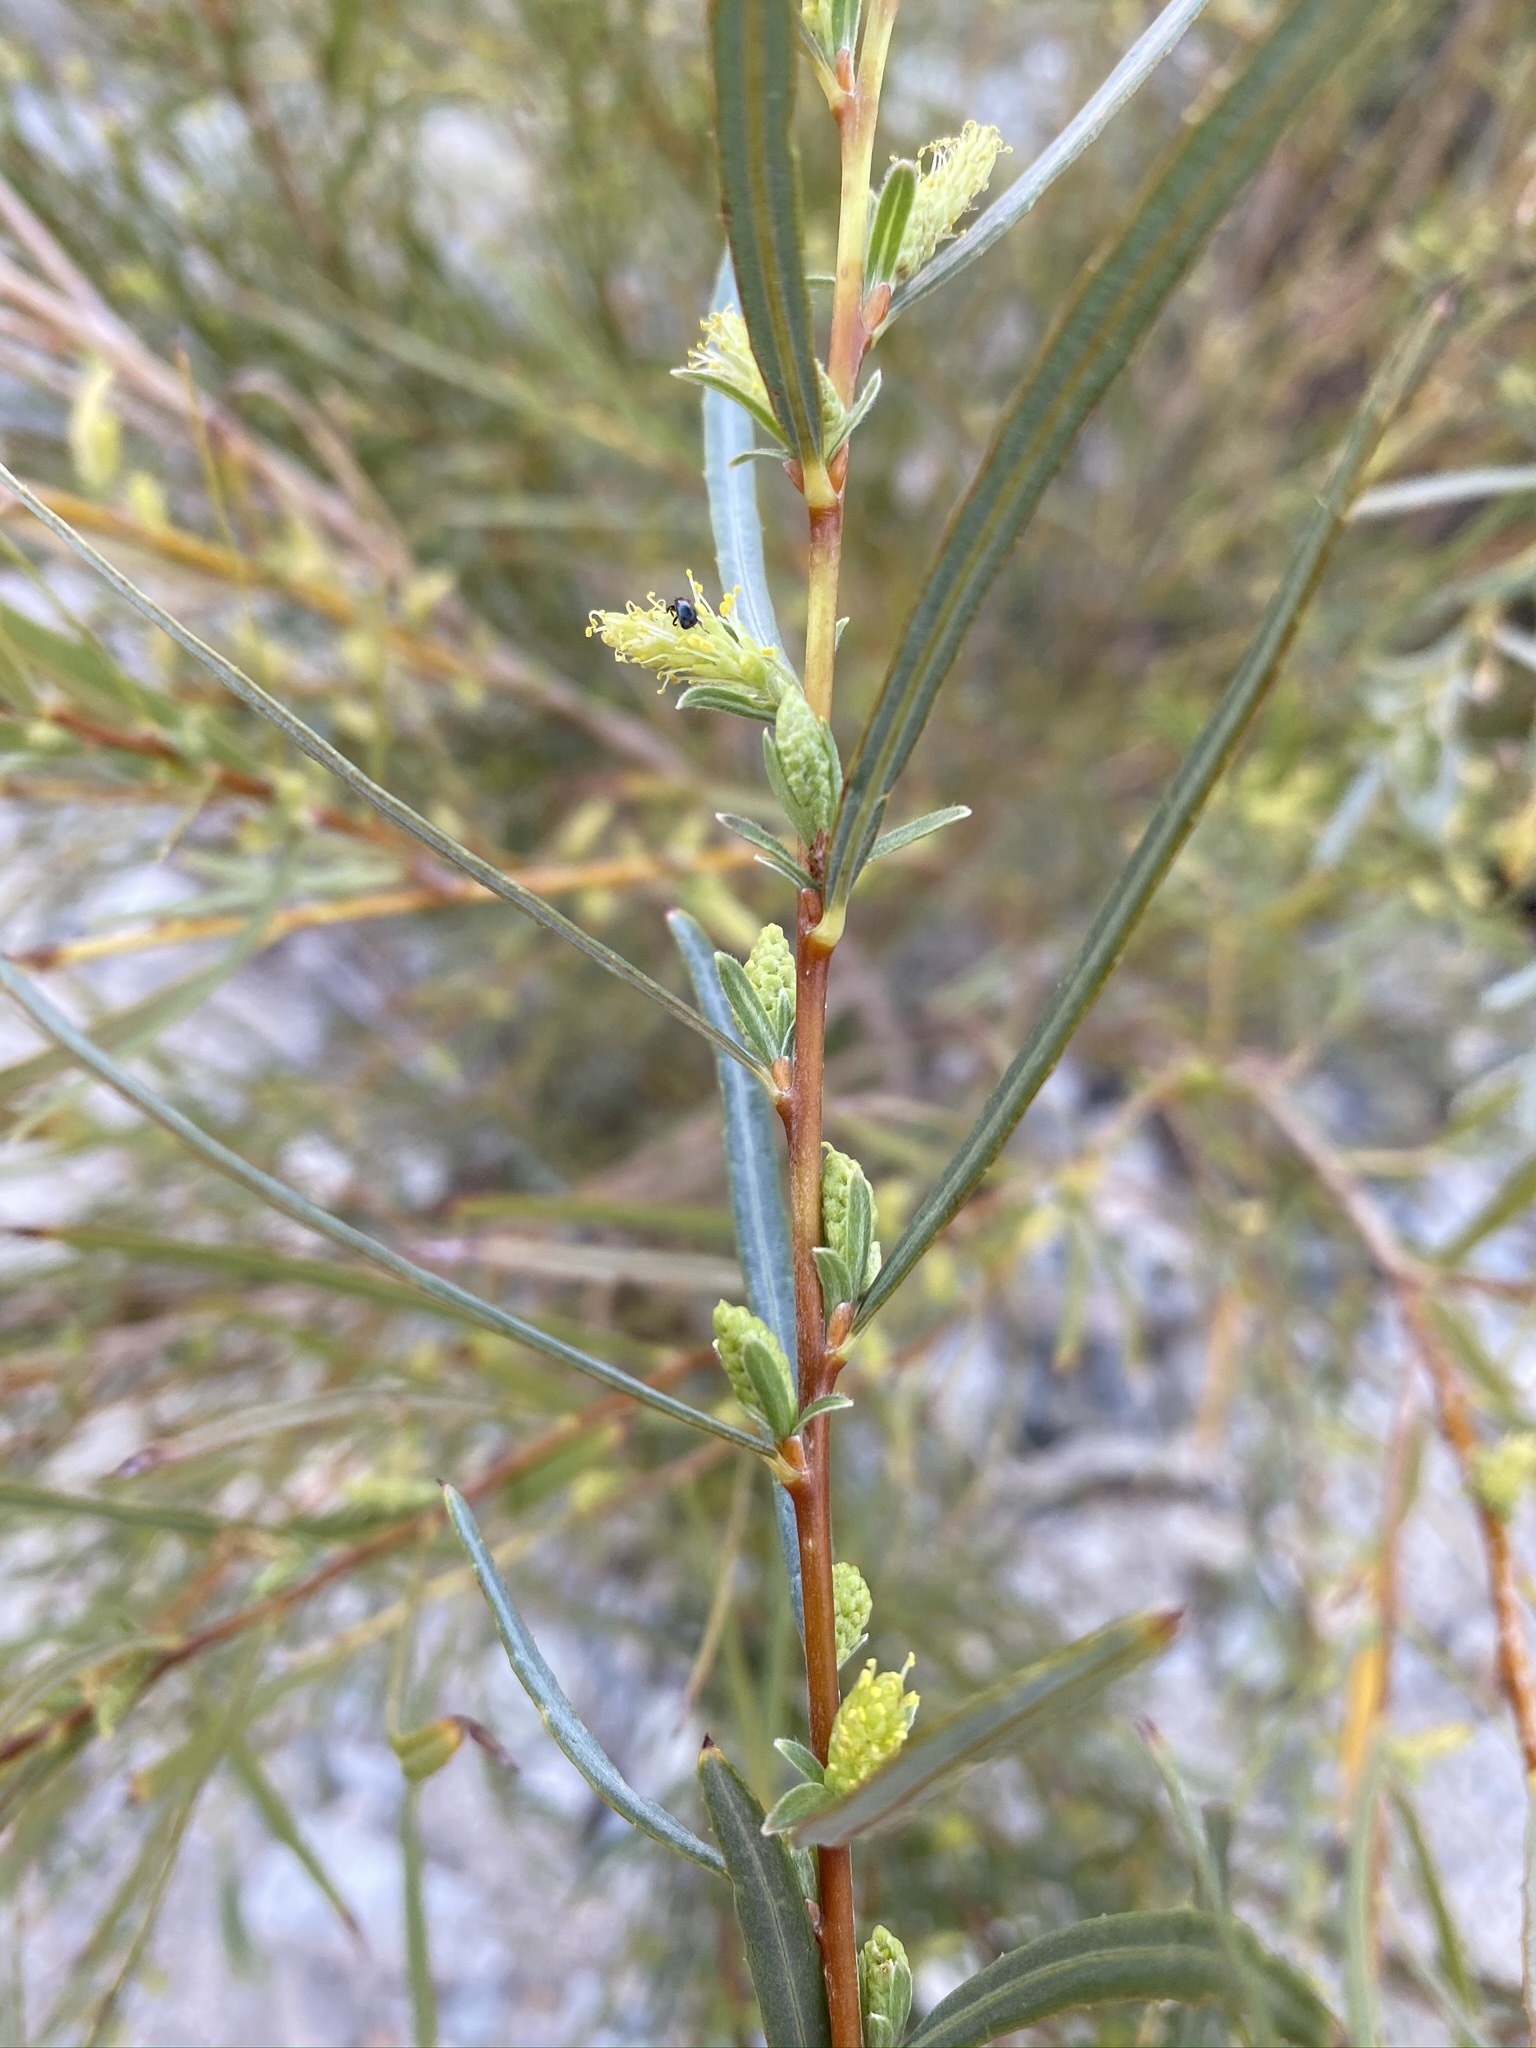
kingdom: Plantae
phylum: Tracheophyta
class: Magnoliopsida
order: Malpighiales
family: Salicaceae
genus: Salix
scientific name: Salix exigua
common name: Coyote willow
